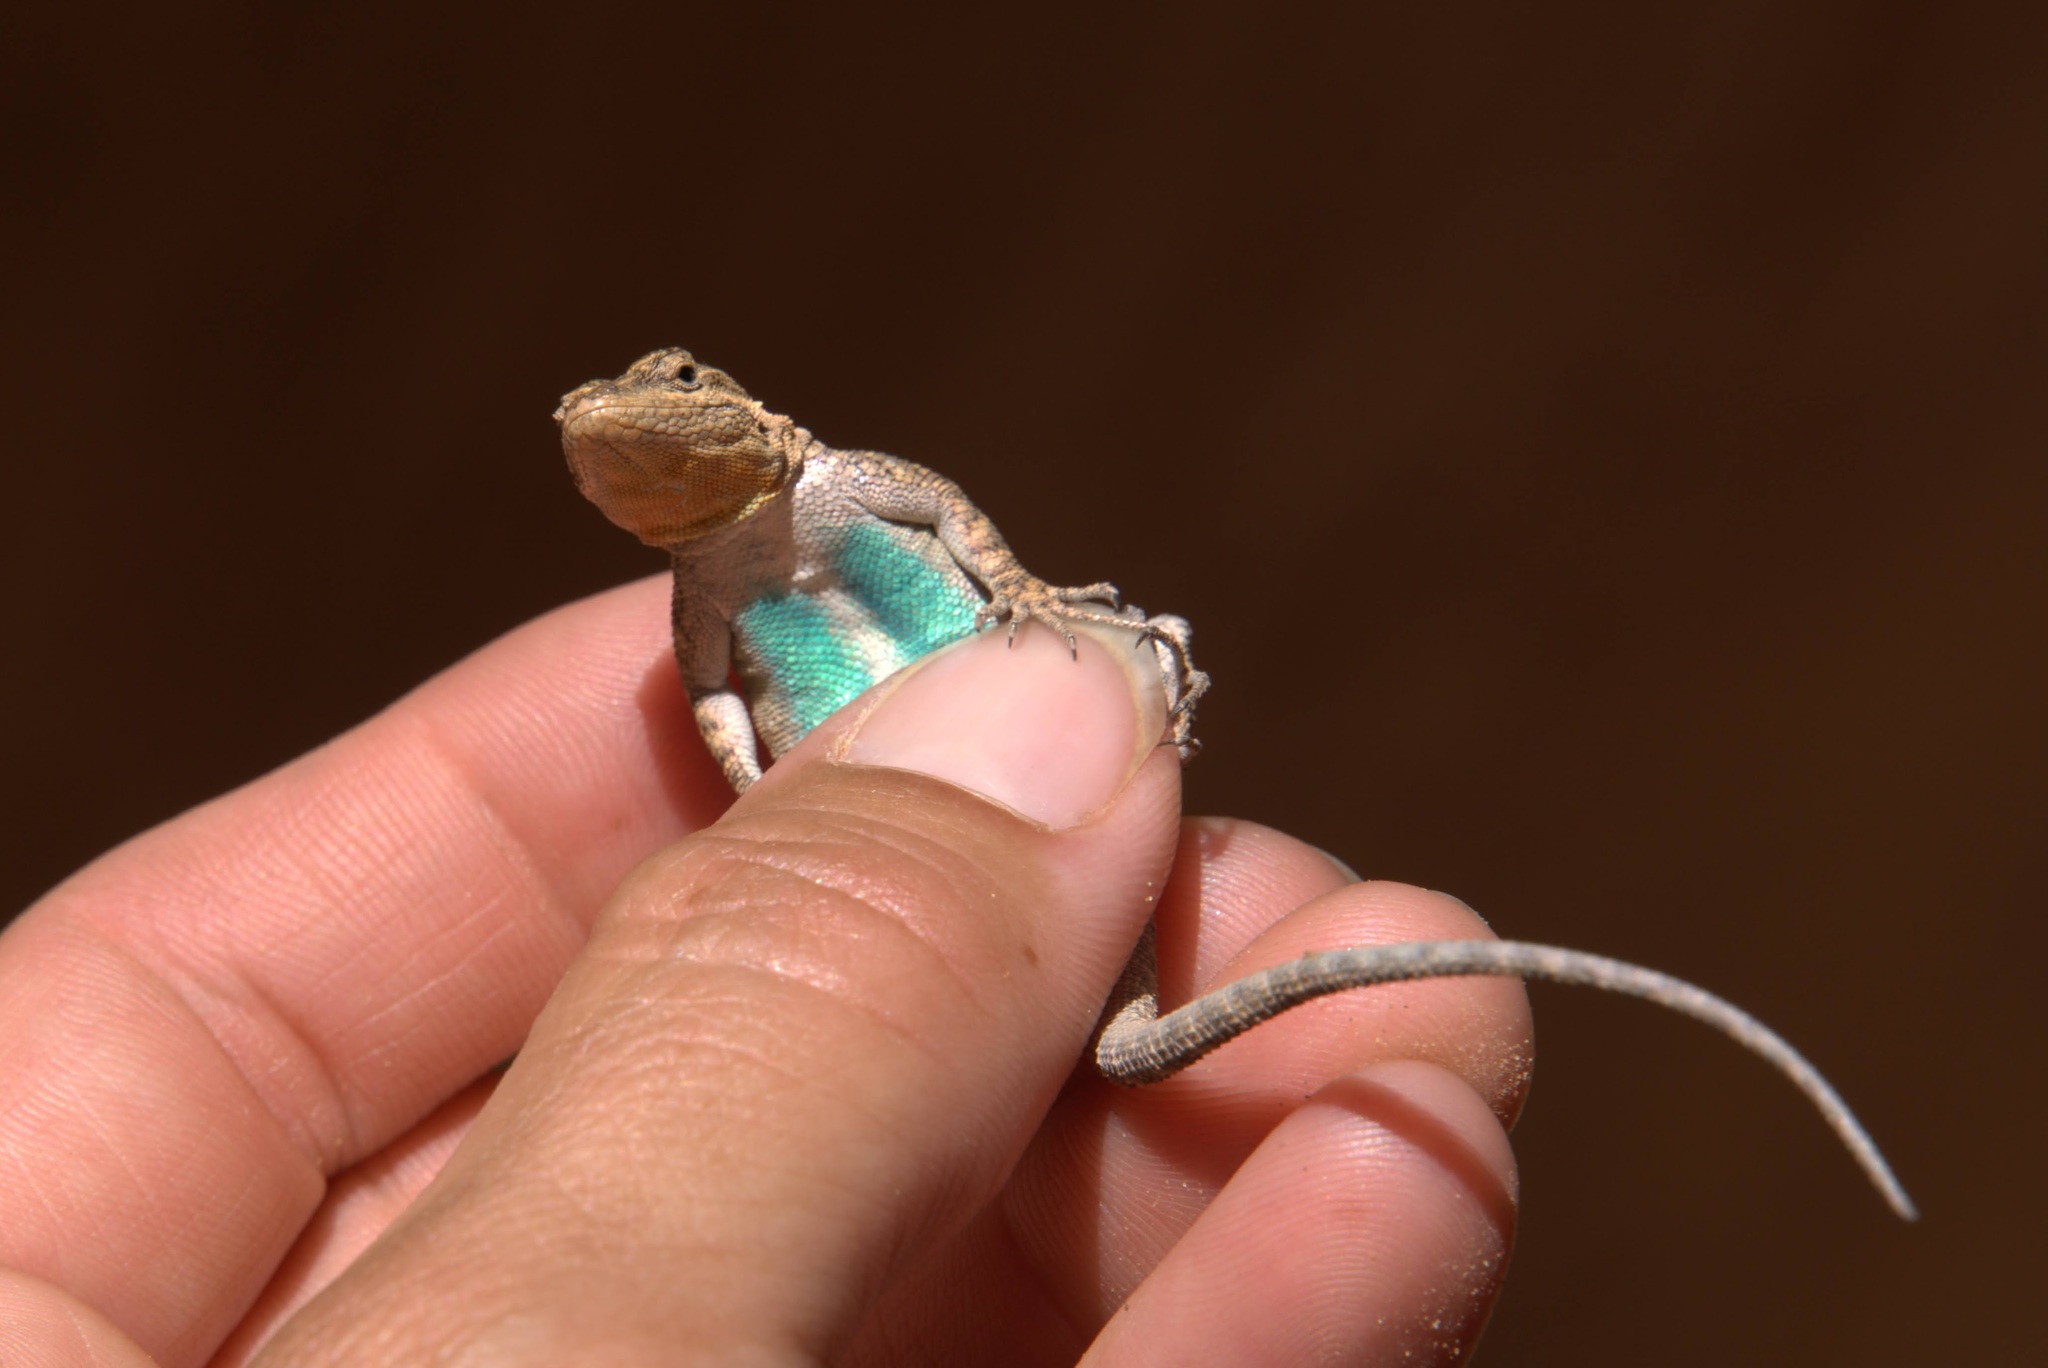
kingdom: Animalia
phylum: Chordata
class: Squamata
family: Phrynosomatidae
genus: Urosaurus
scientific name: Urosaurus ornatus
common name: Ornate tree lizard
